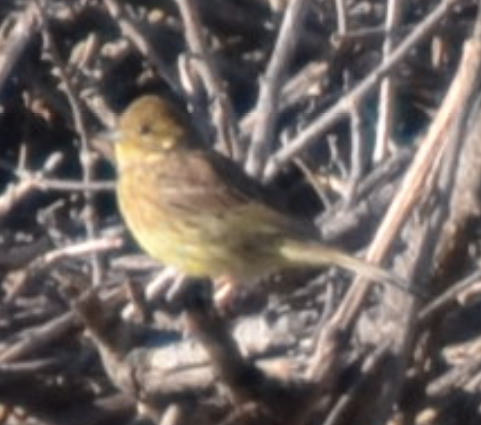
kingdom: Animalia
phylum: Chordata
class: Aves
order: Passeriformes
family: Emberizidae
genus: Emberiza
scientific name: Emberiza cirlus
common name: Cirl bunting
